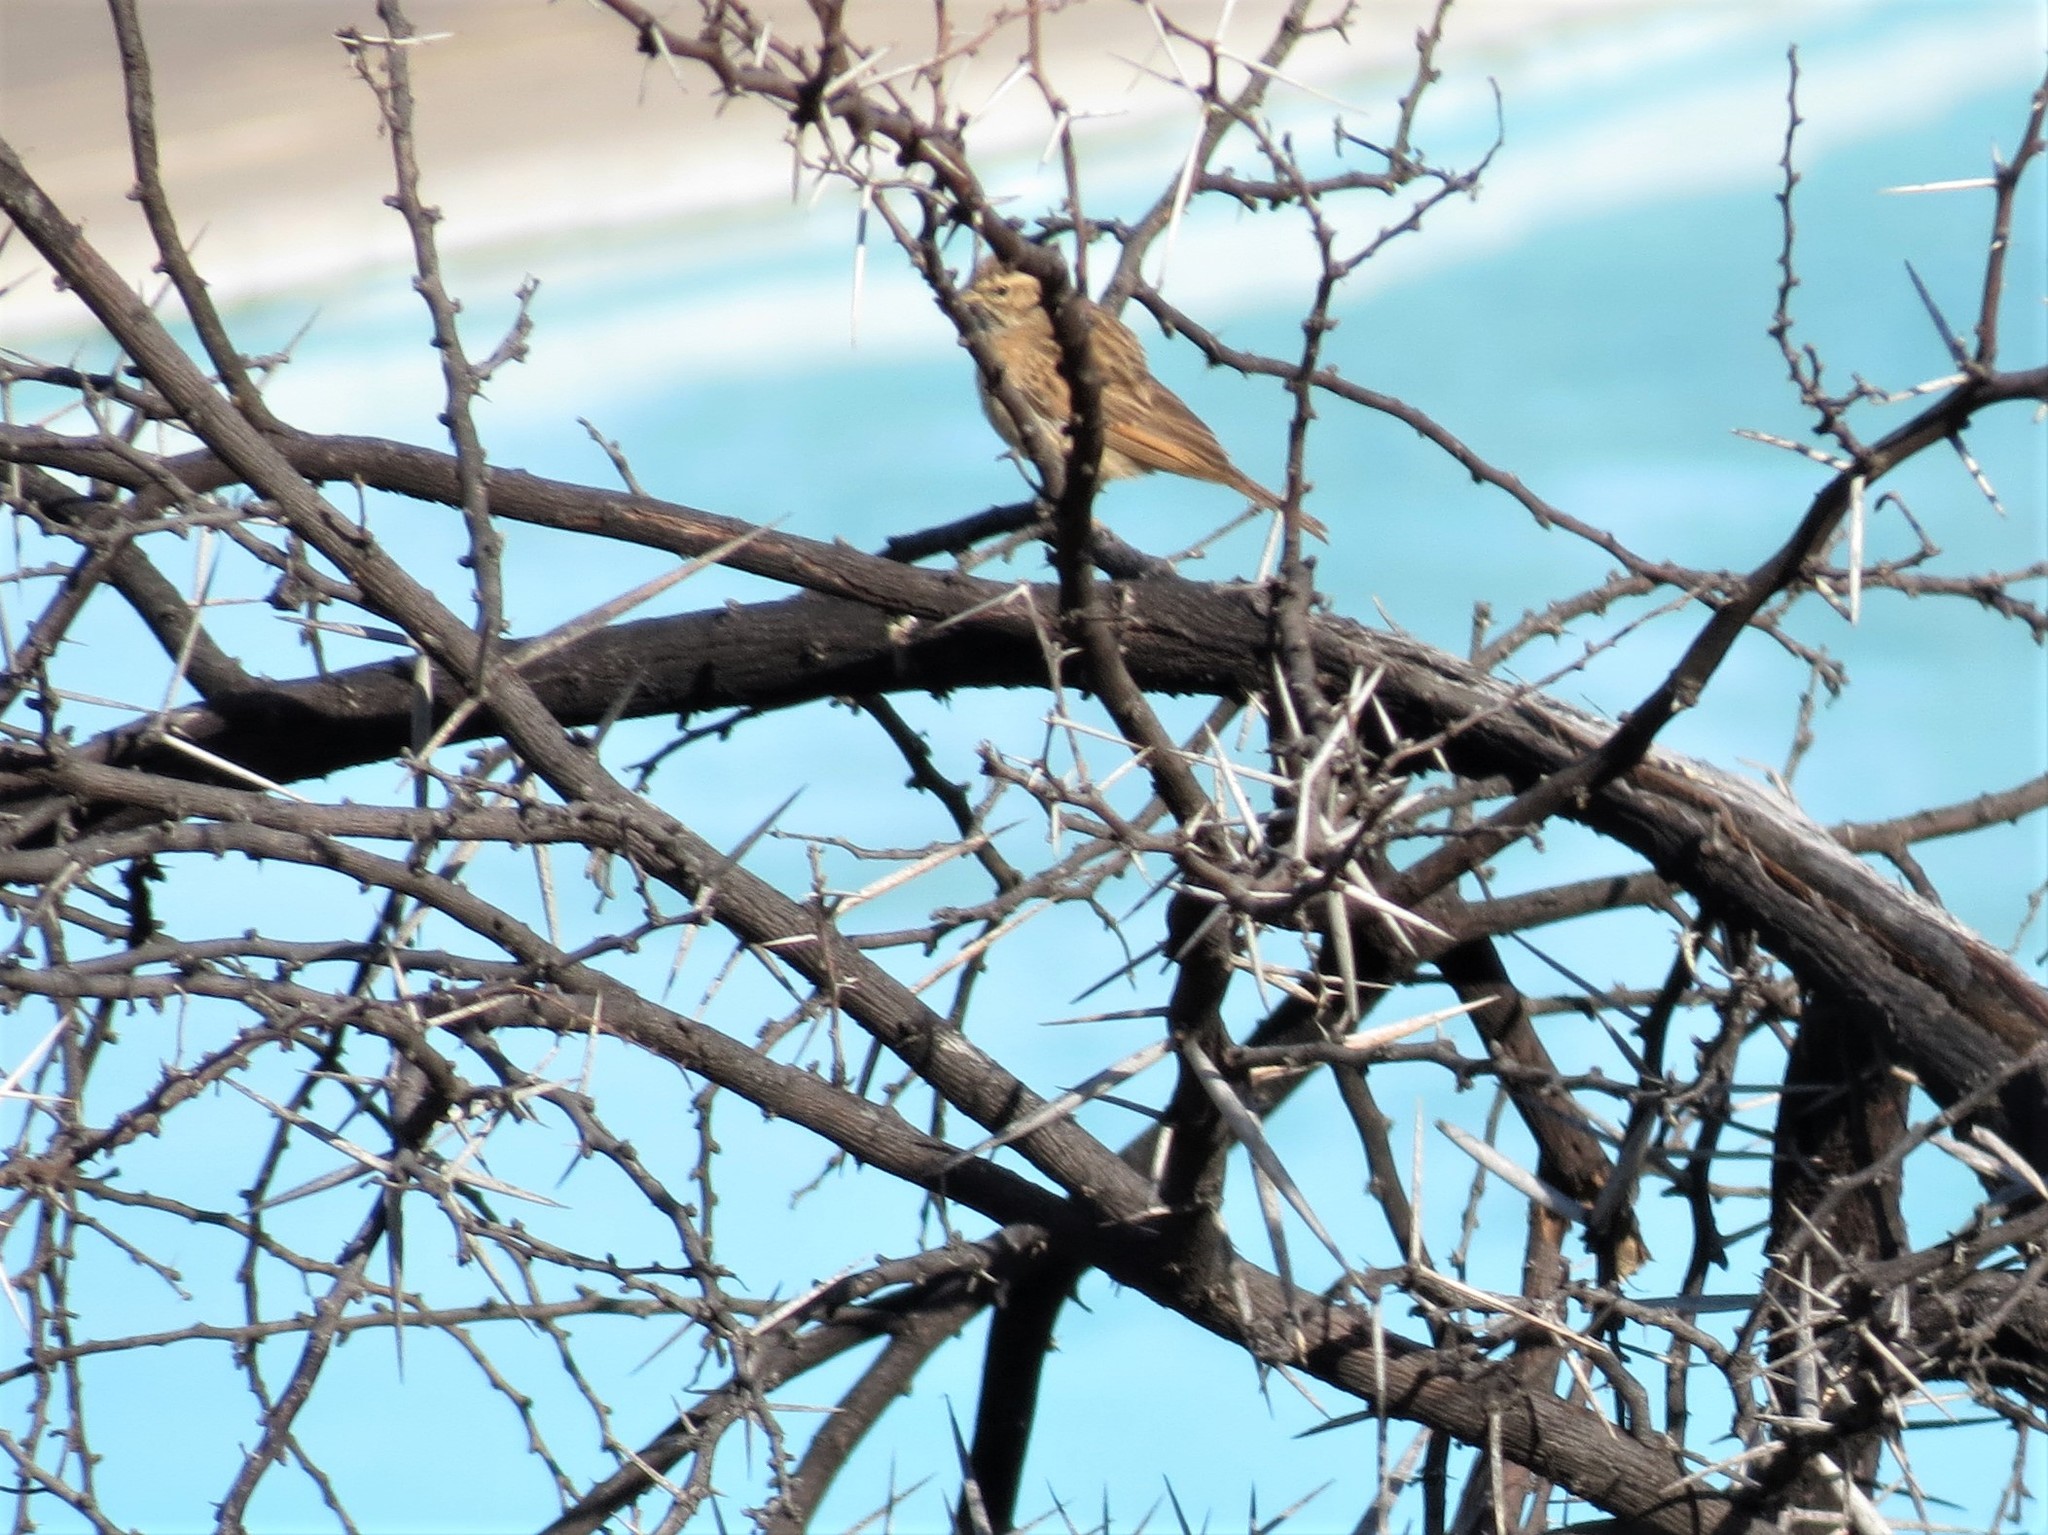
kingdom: Animalia
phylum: Chordata
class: Aves
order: Passeriformes
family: Emberizidae
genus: Emberiza
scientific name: Emberiza impetuani
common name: Lark-like bunting
